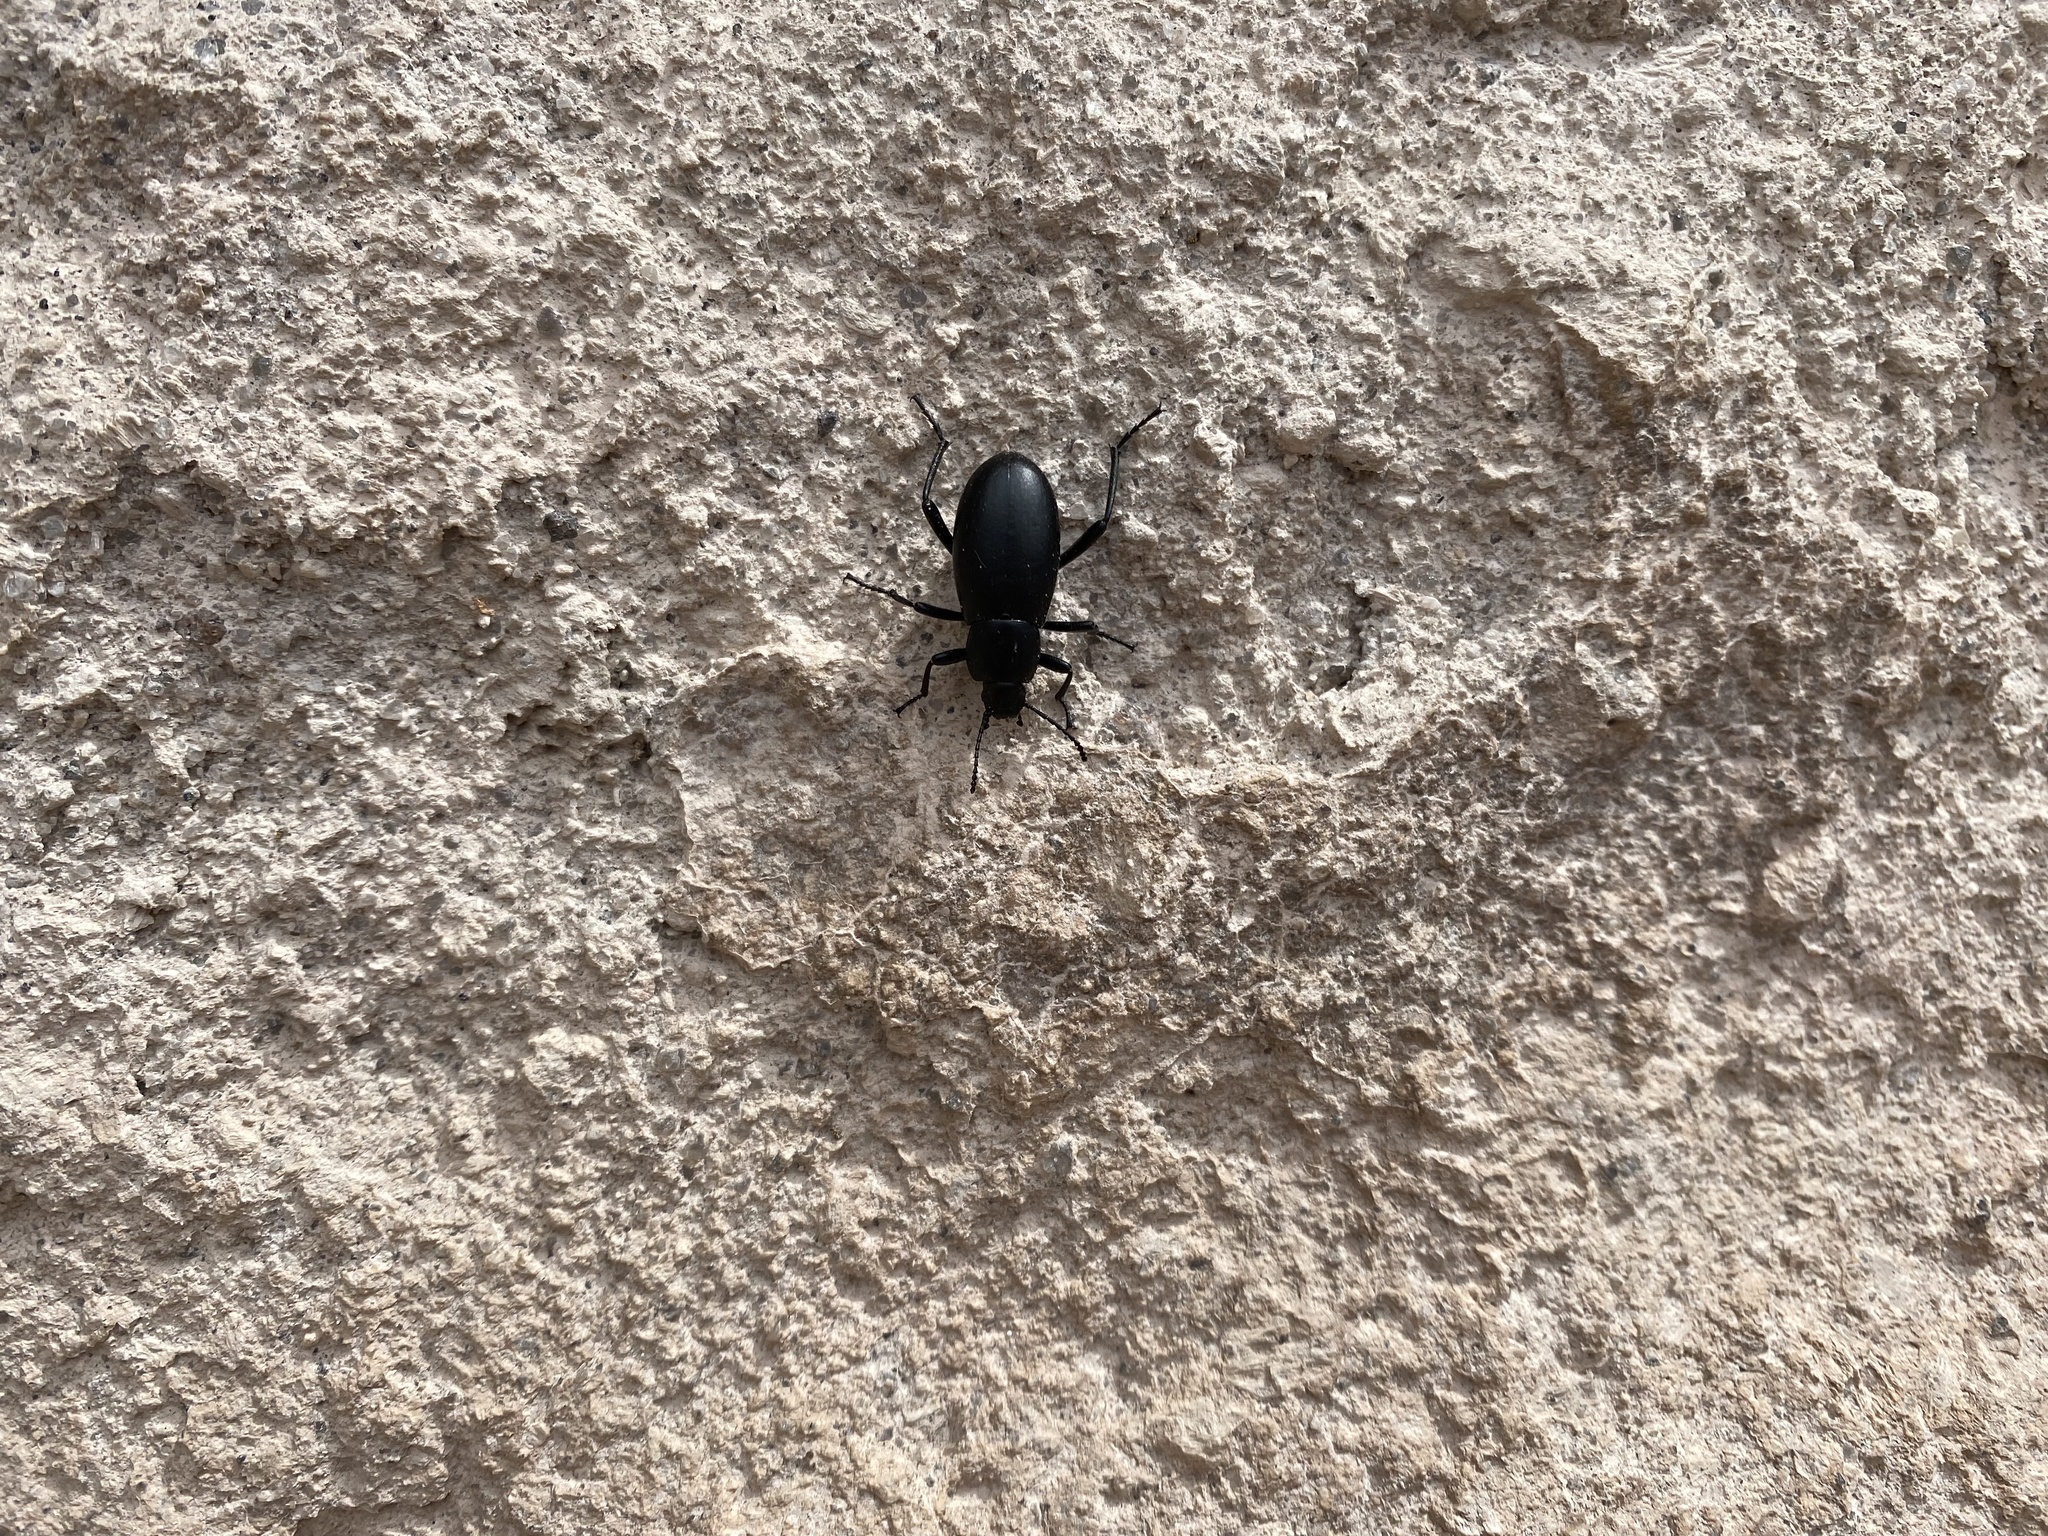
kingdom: Animalia
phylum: Arthropoda
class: Insecta
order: Coleoptera
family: Tenebrionidae
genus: Eleodes
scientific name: Eleodes longicollis
